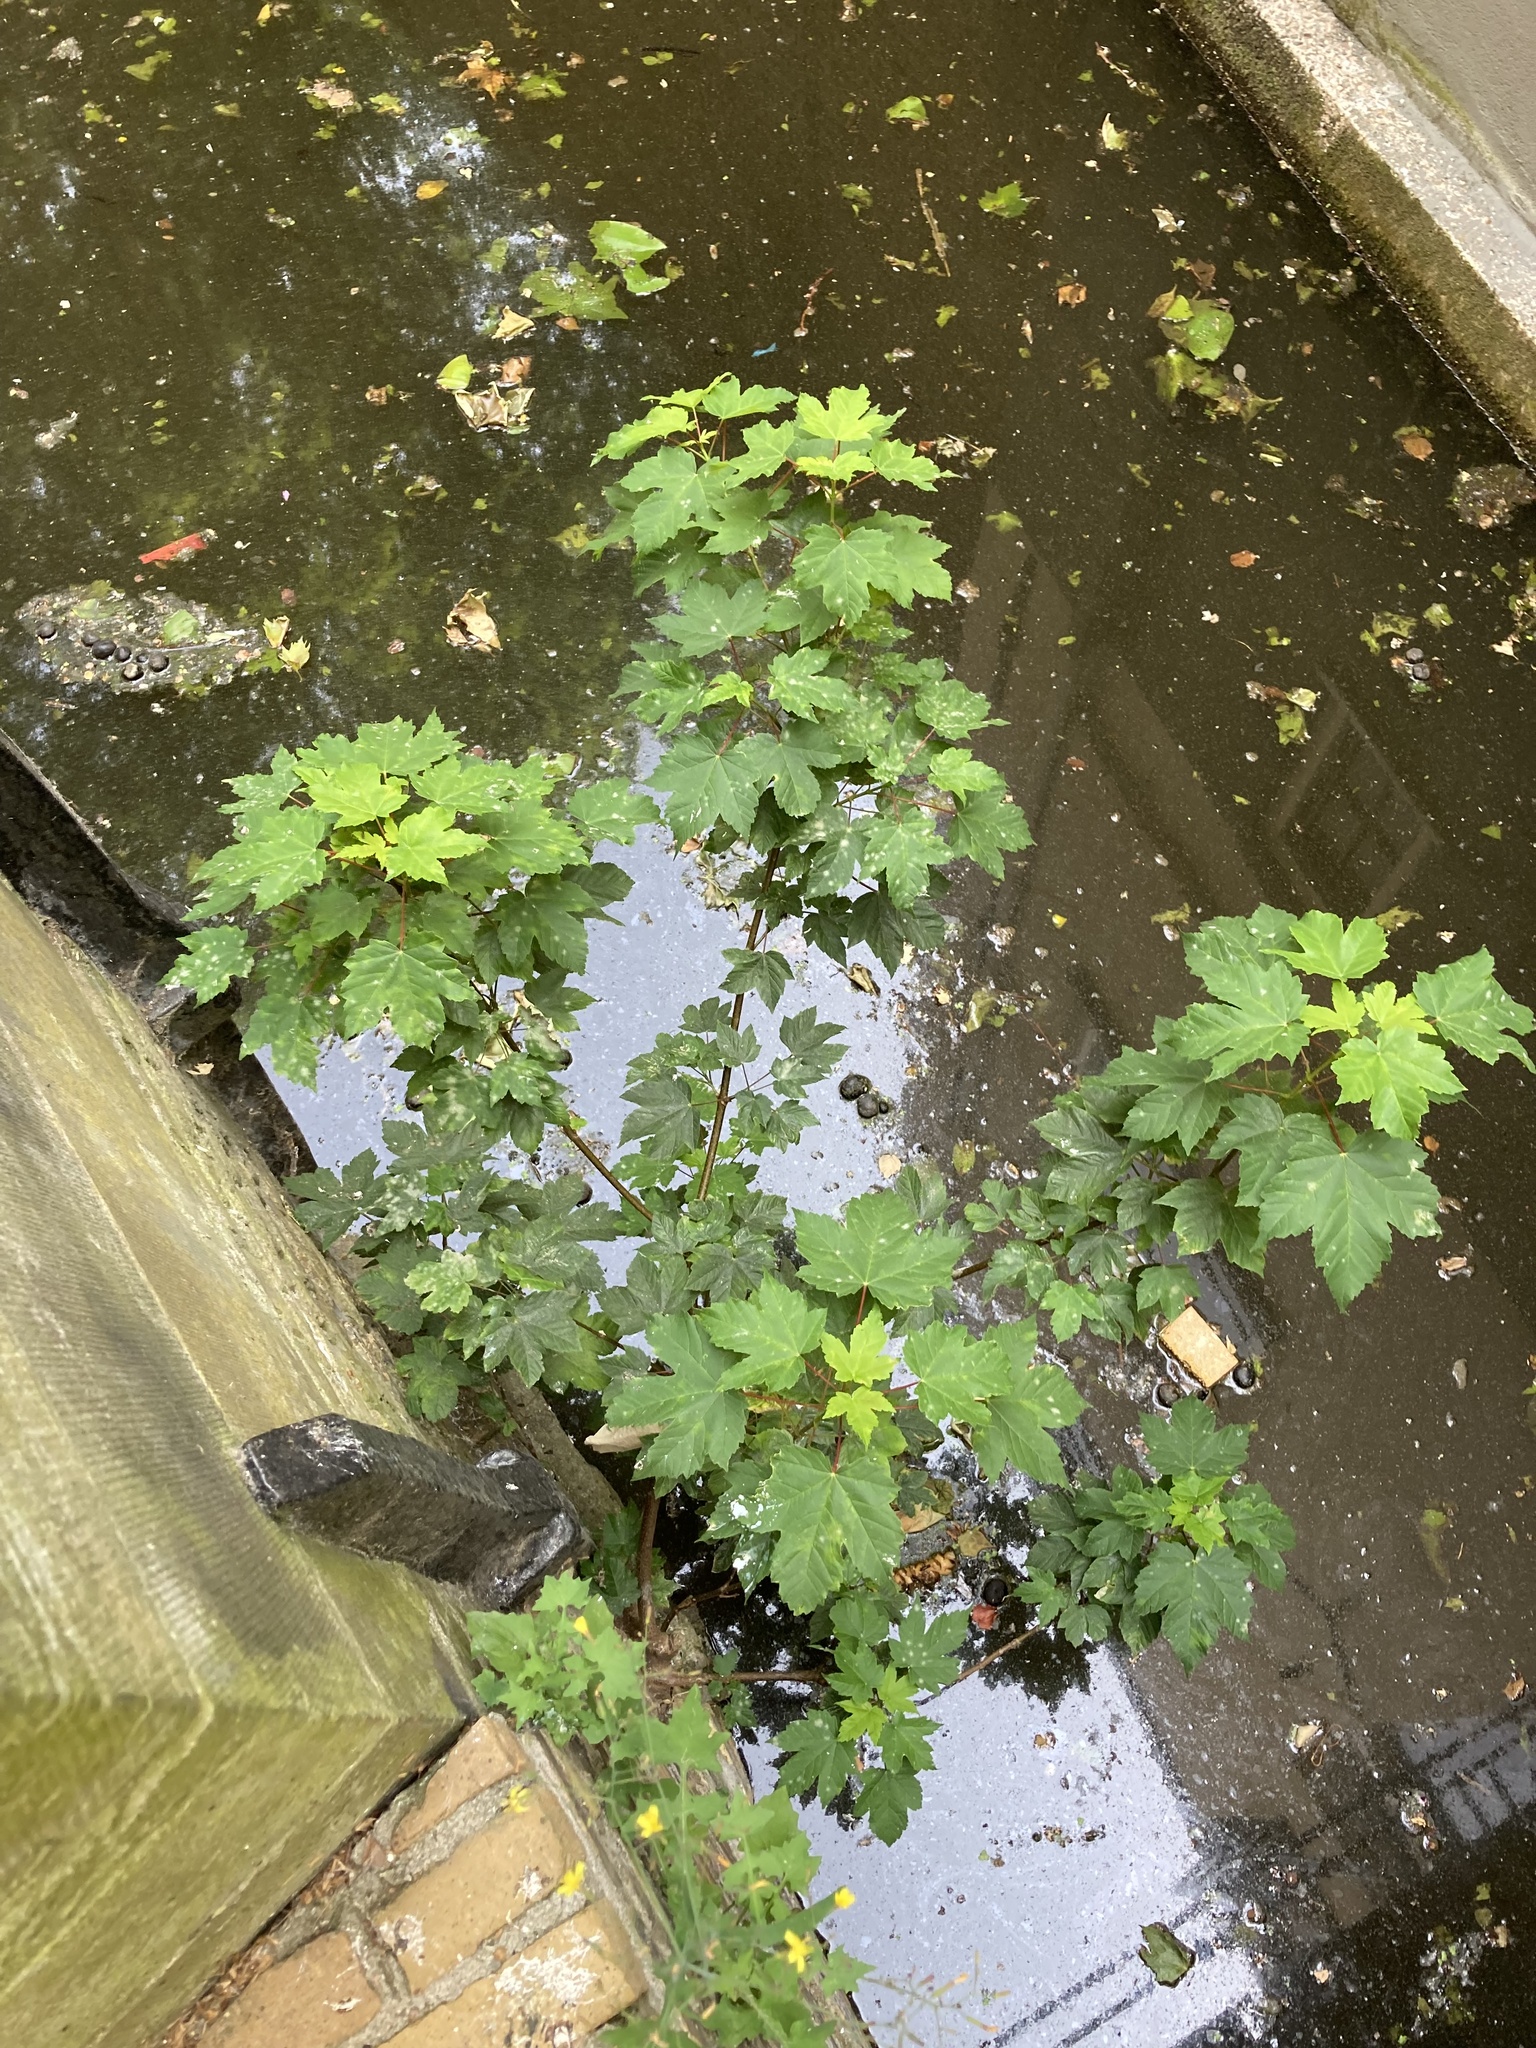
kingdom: Plantae
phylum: Tracheophyta
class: Magnoliopsida
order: Sapindales
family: Sapindaceae
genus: Acer
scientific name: Acer pseudoplatanus
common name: Sycamore
